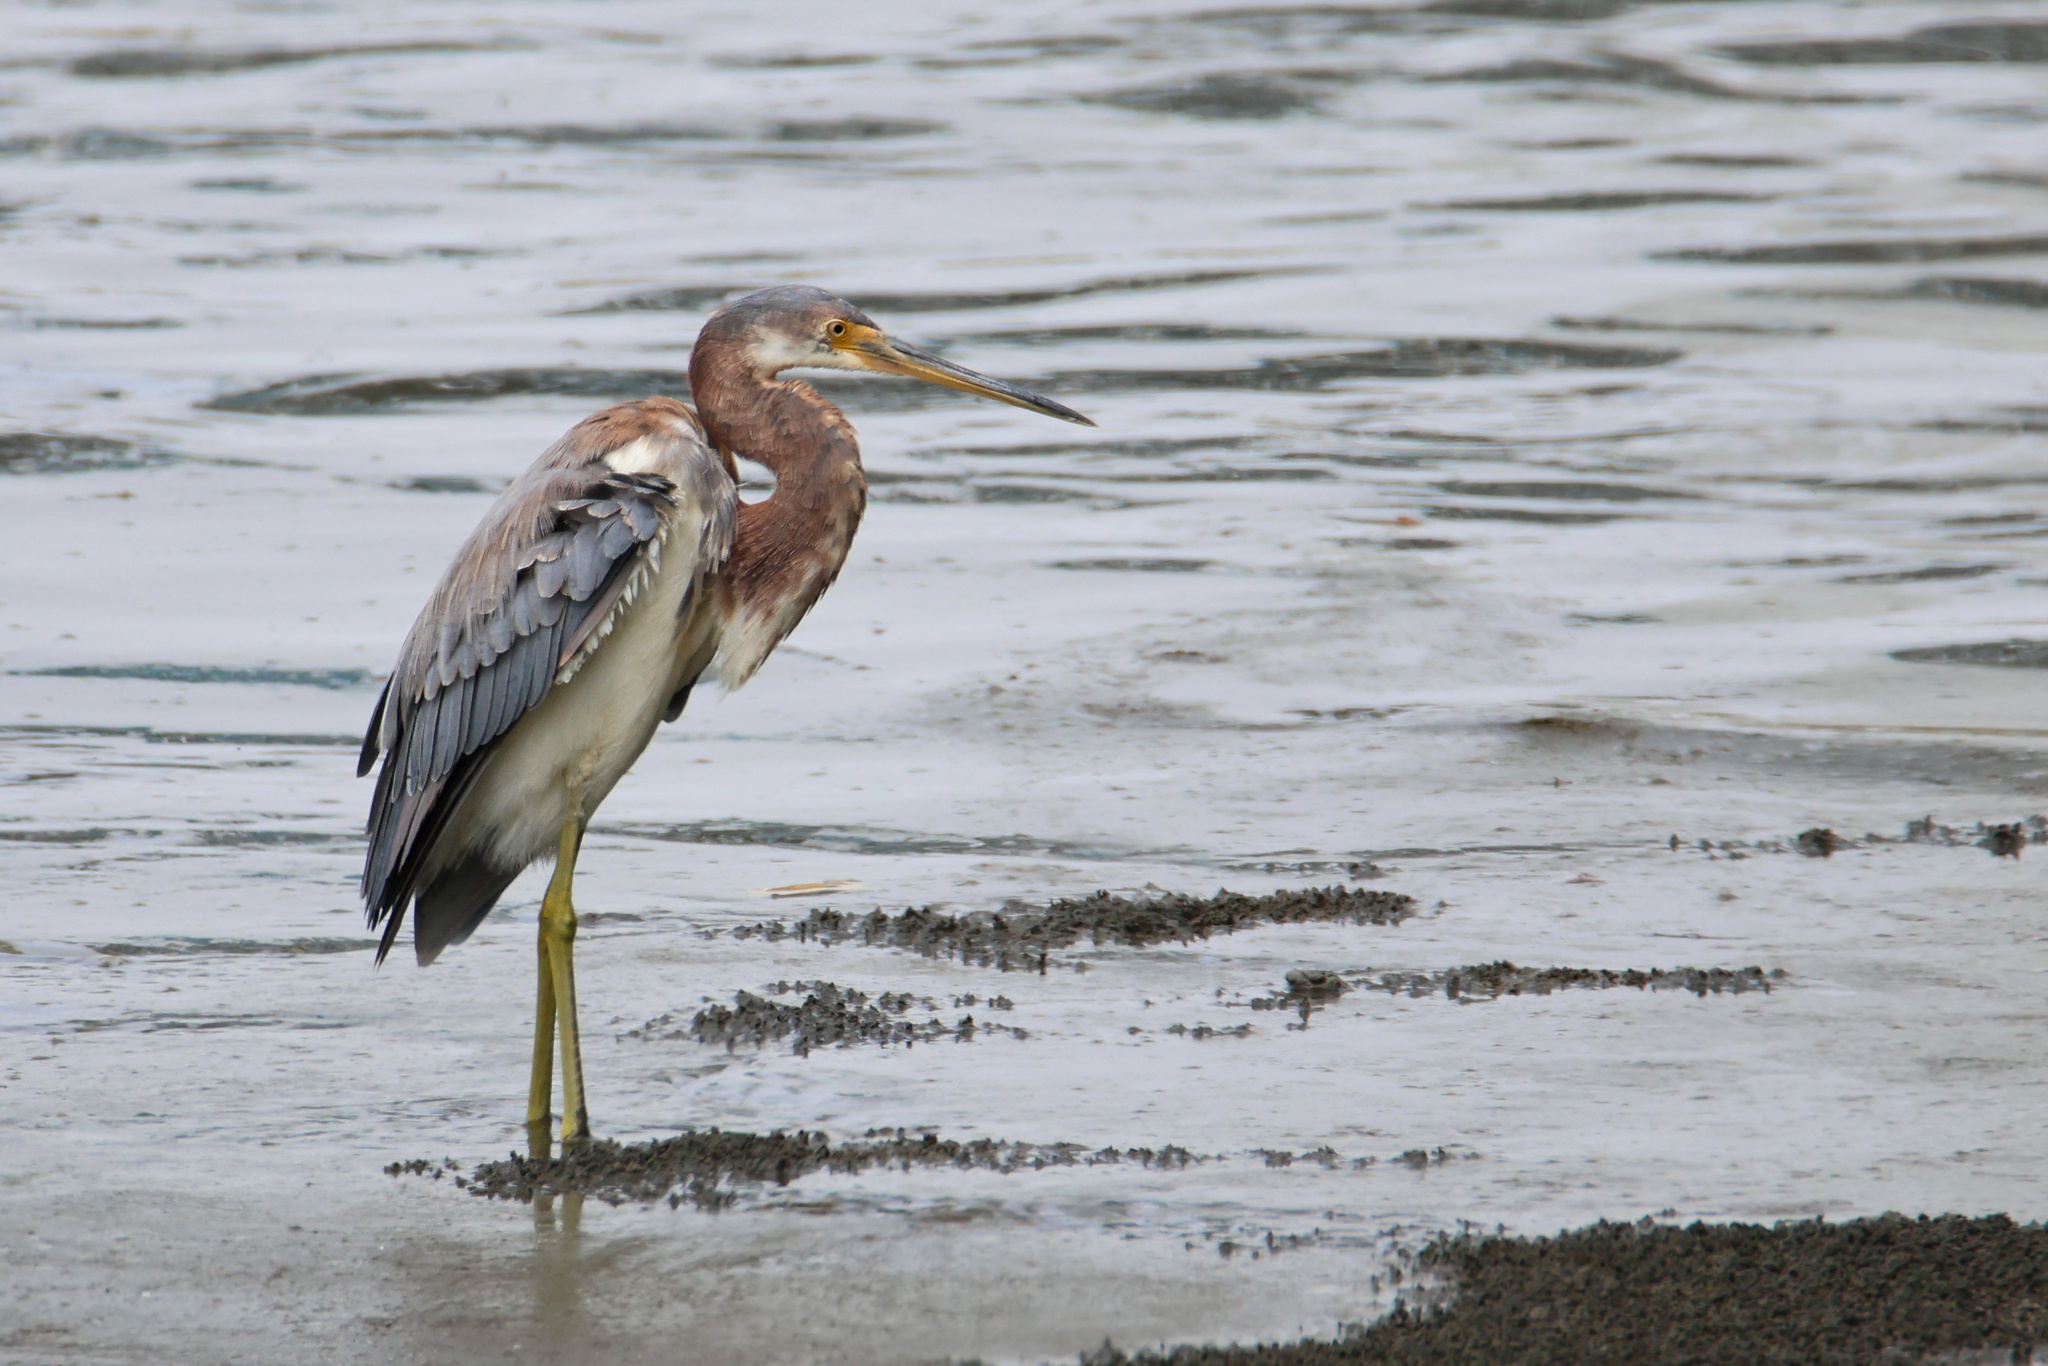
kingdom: Animalia
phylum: Chordata
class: Aves
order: Pelecaniformes
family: Ardeidae
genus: Egretta
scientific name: Egretta tricolor
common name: Tricolored heron
